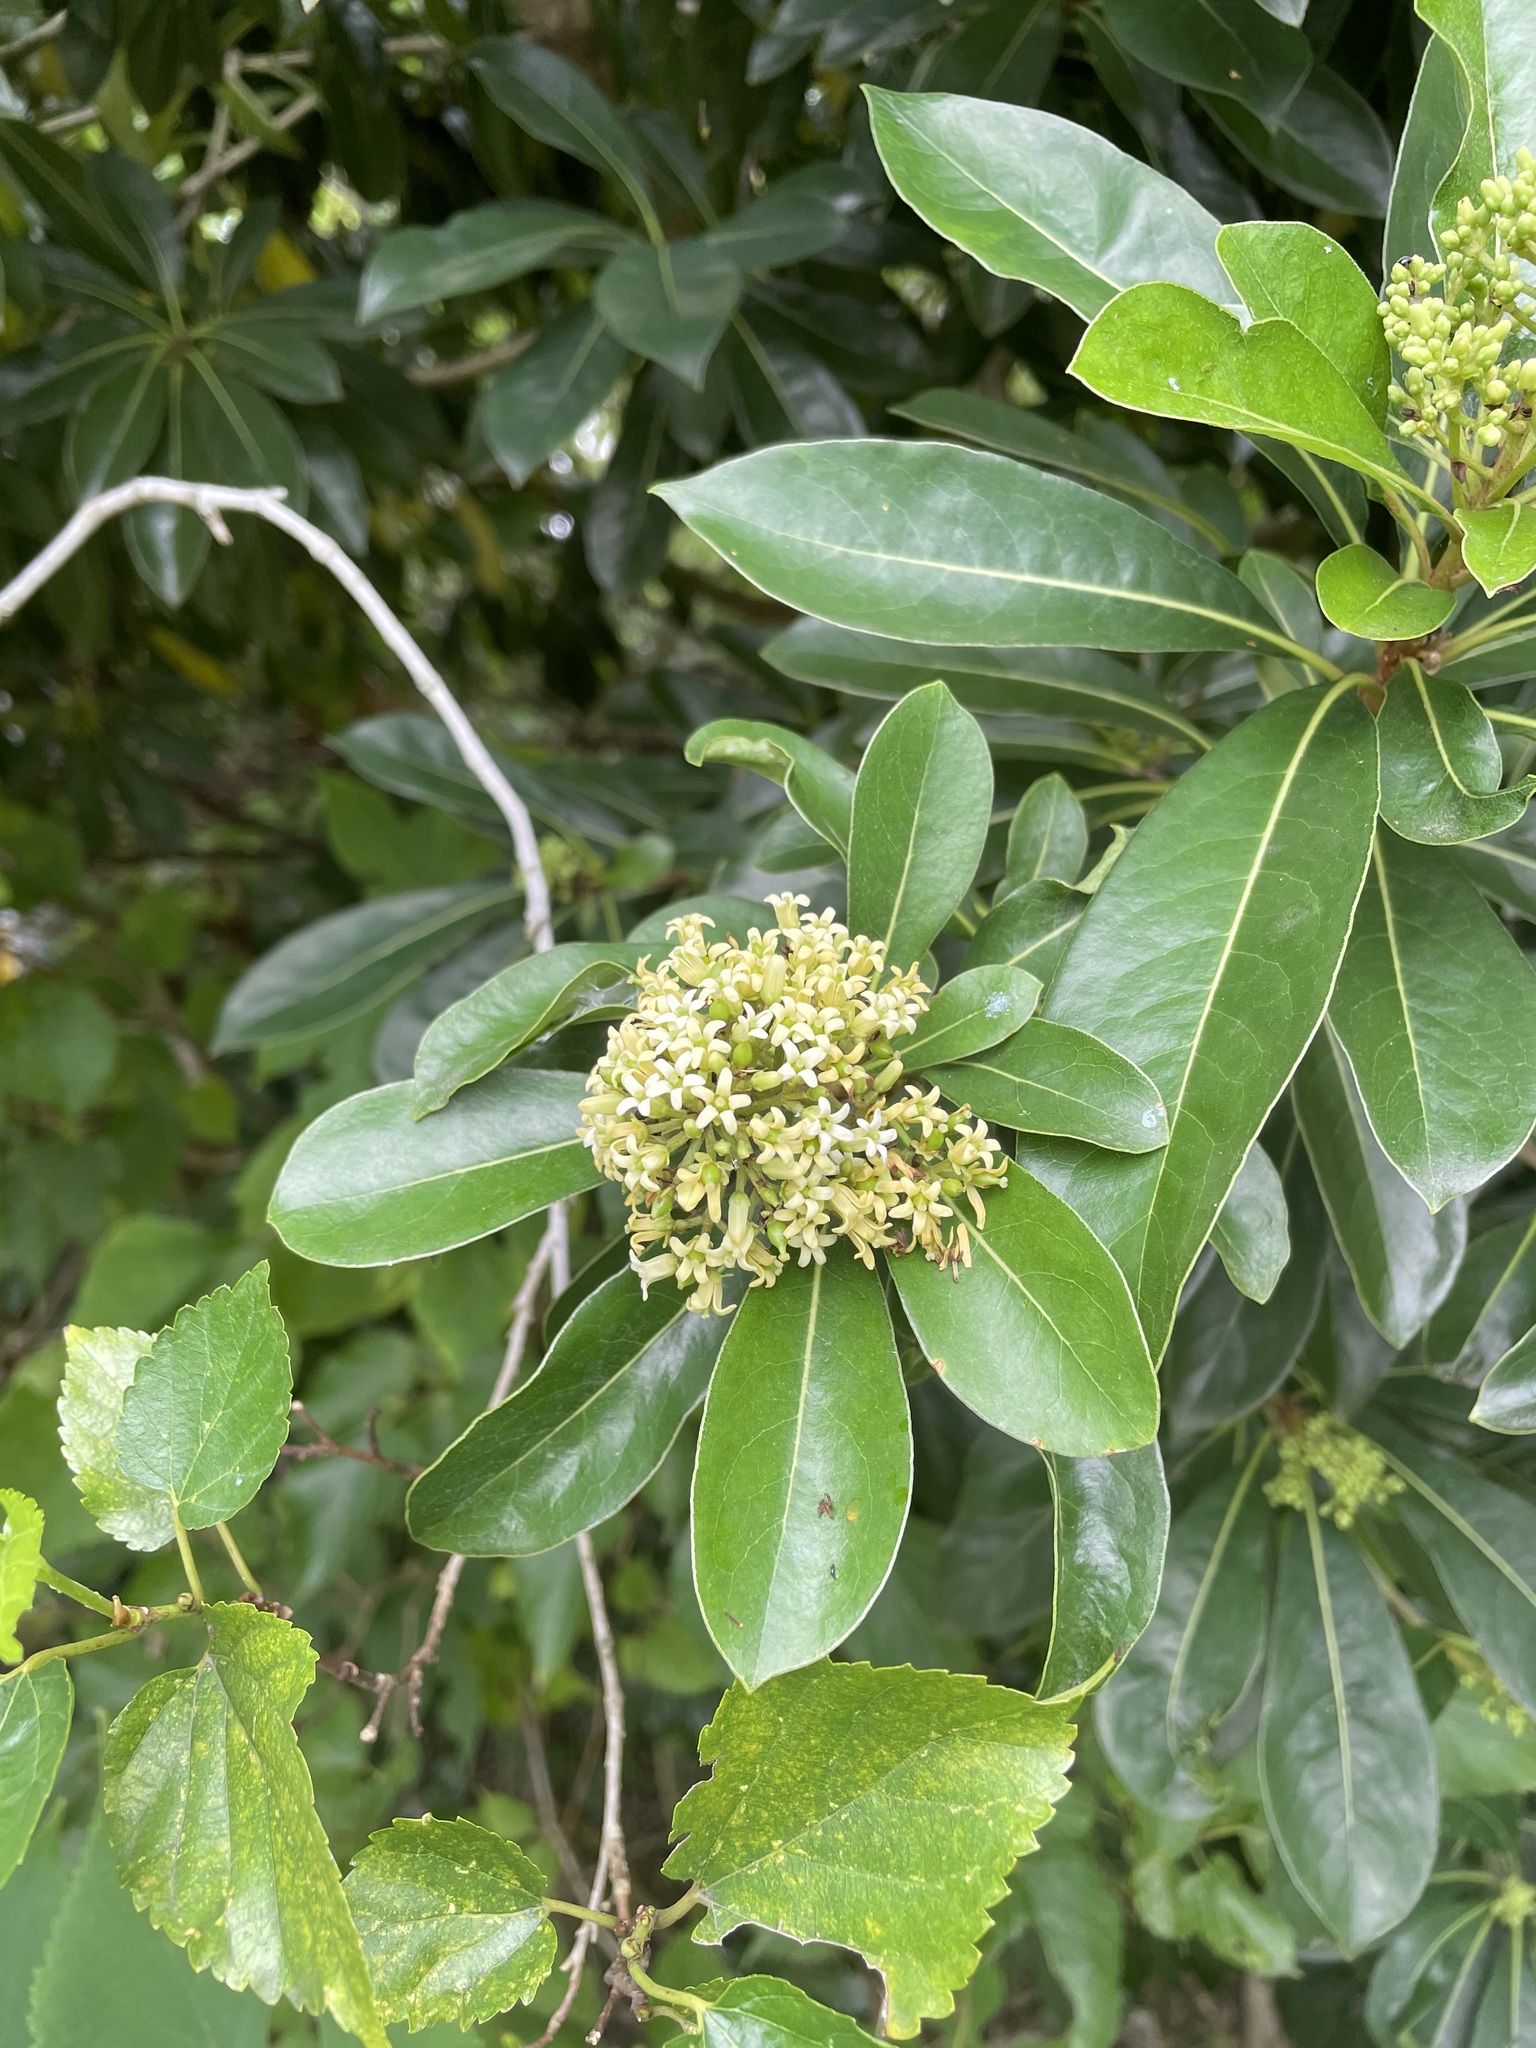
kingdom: Plantae
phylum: Tracheophyta
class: Magnoliopsida
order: Apiales
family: Pittosporaceae
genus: Pittosporum
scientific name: Pittosporum pentandrum
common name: Taiwanese cheesewood
